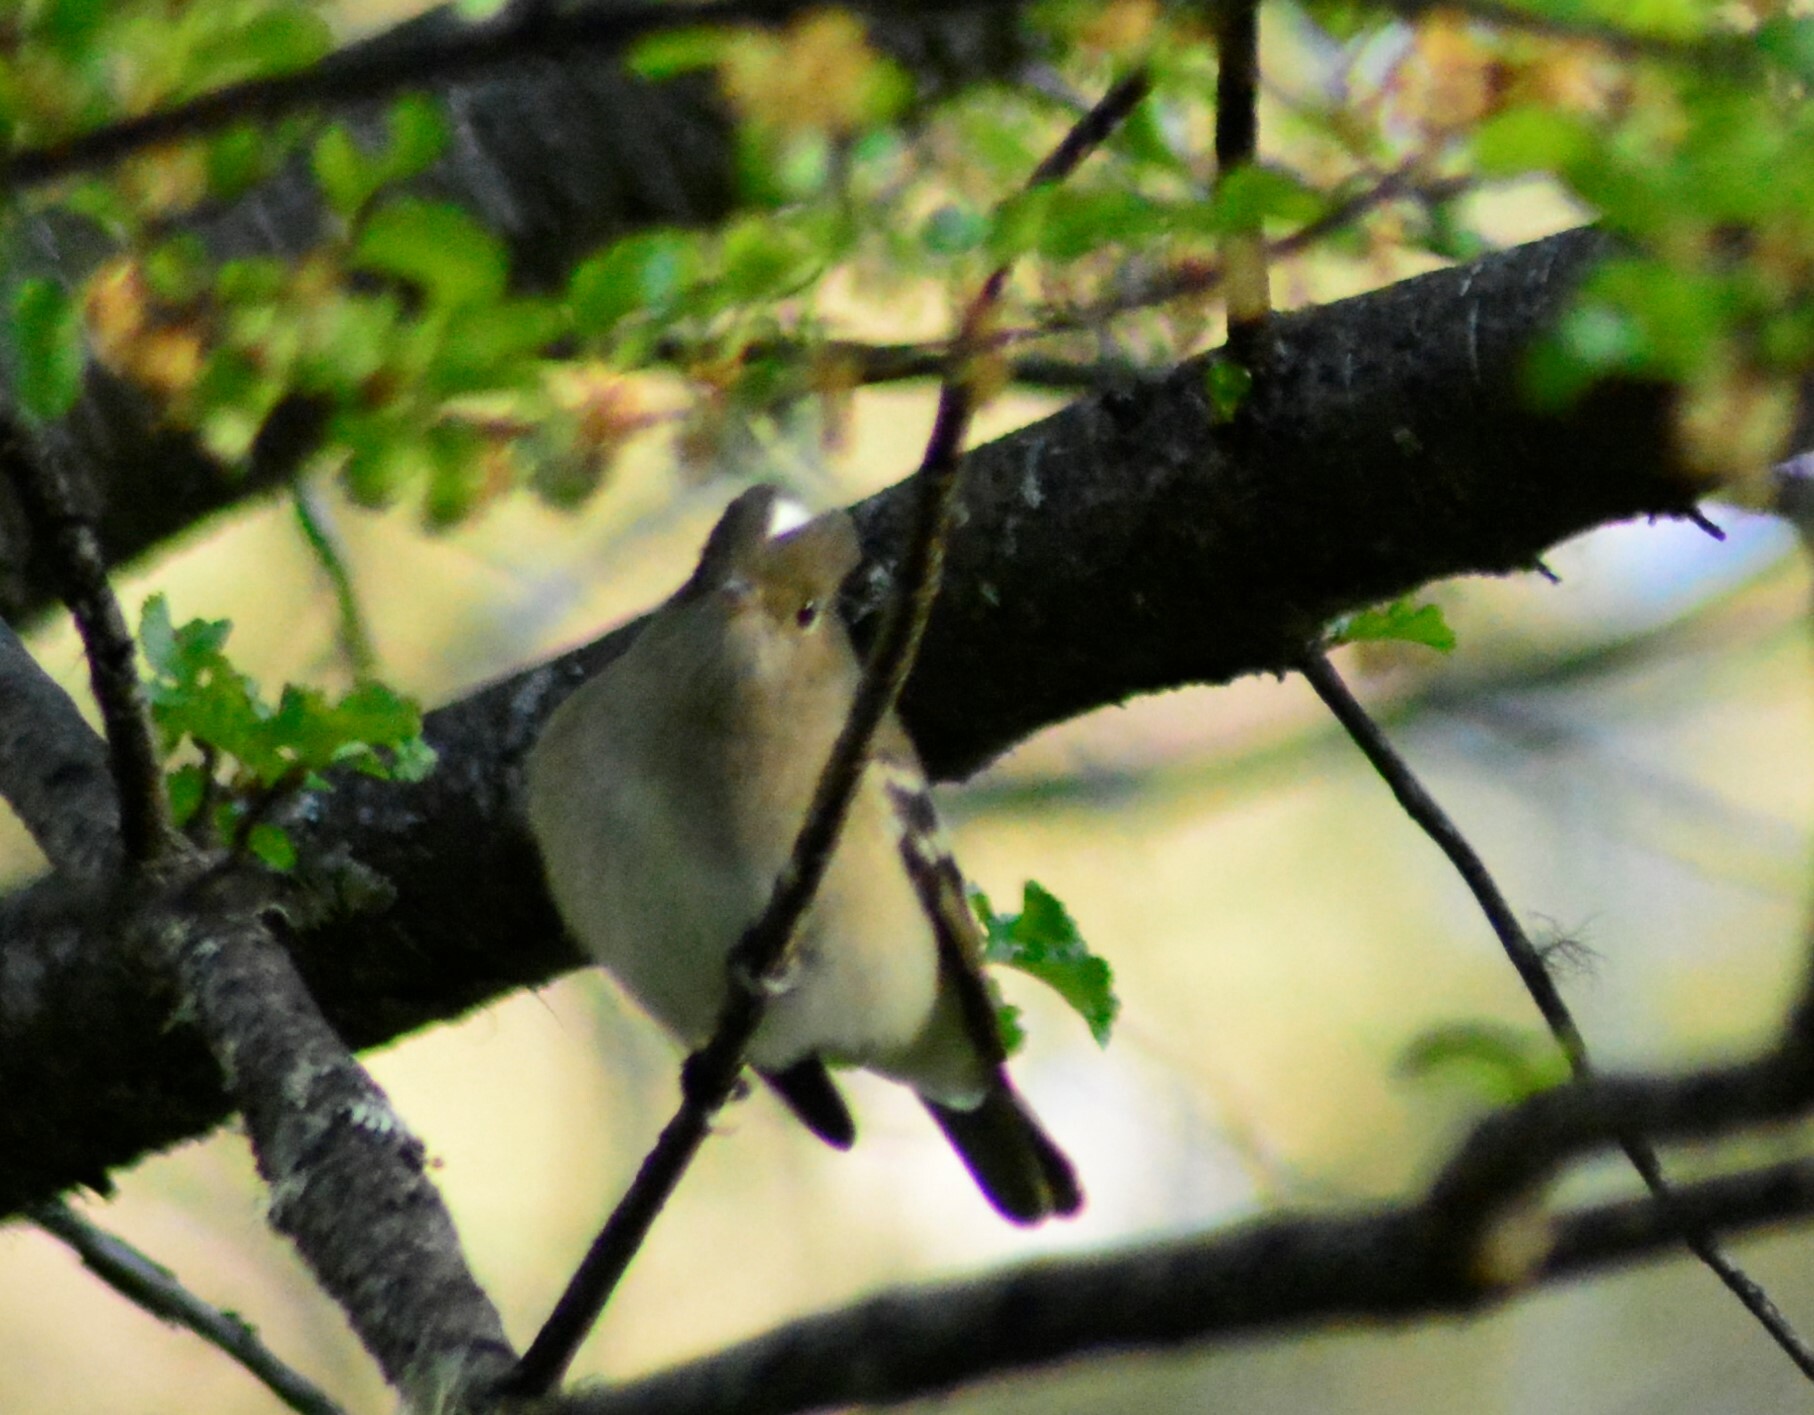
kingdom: Animalia
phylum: Chordata
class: Aves
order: Passeriformes
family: Tyrannidae
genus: Elaenia
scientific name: Elaenia albiceps
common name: White-crested elaenia
